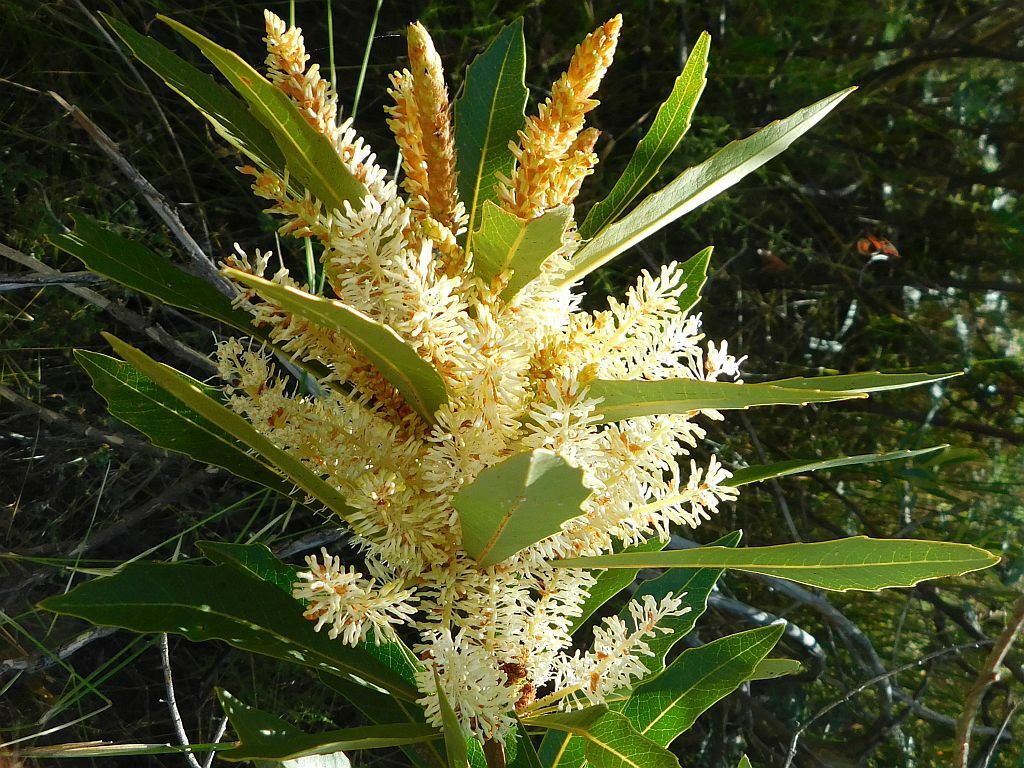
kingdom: Plantae
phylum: Tracheophyta
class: Magnoliopsida
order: Proteales
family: Proteaceae
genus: Brabejum
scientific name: Brabejum stellatifolium
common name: Wild almond
